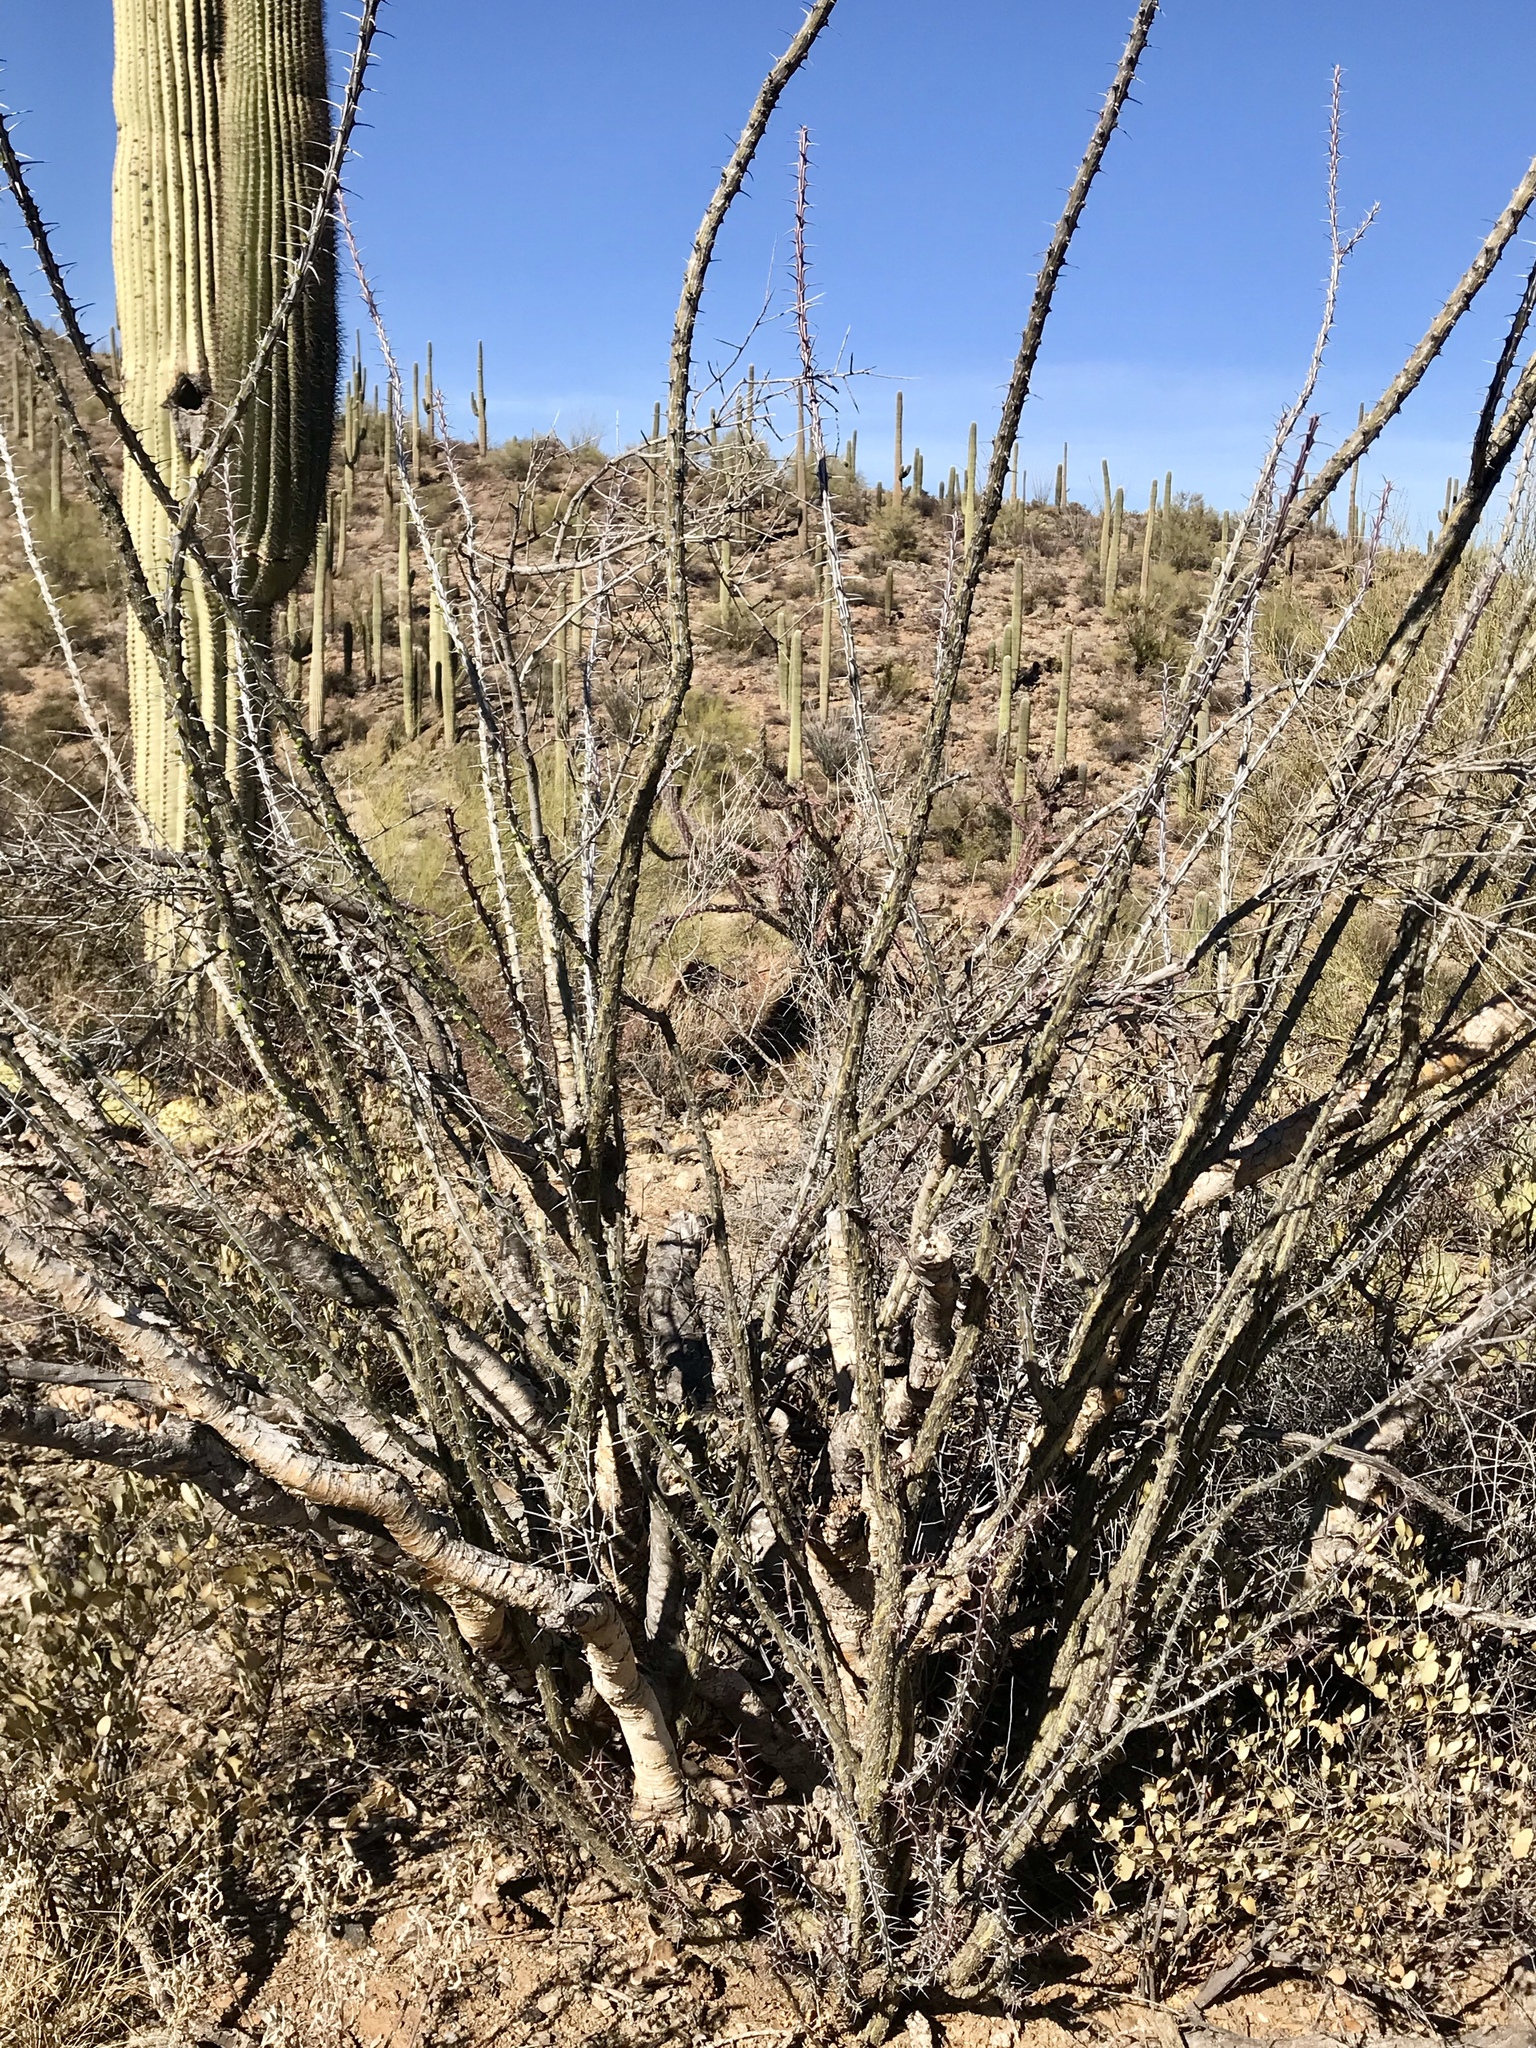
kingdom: Plantae
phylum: Tracheophyta
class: Magnoliopsida
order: Ericales
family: Fouquieriaceae
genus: Fouquieria
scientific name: Fouquieria splendens
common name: Vine-cactus
